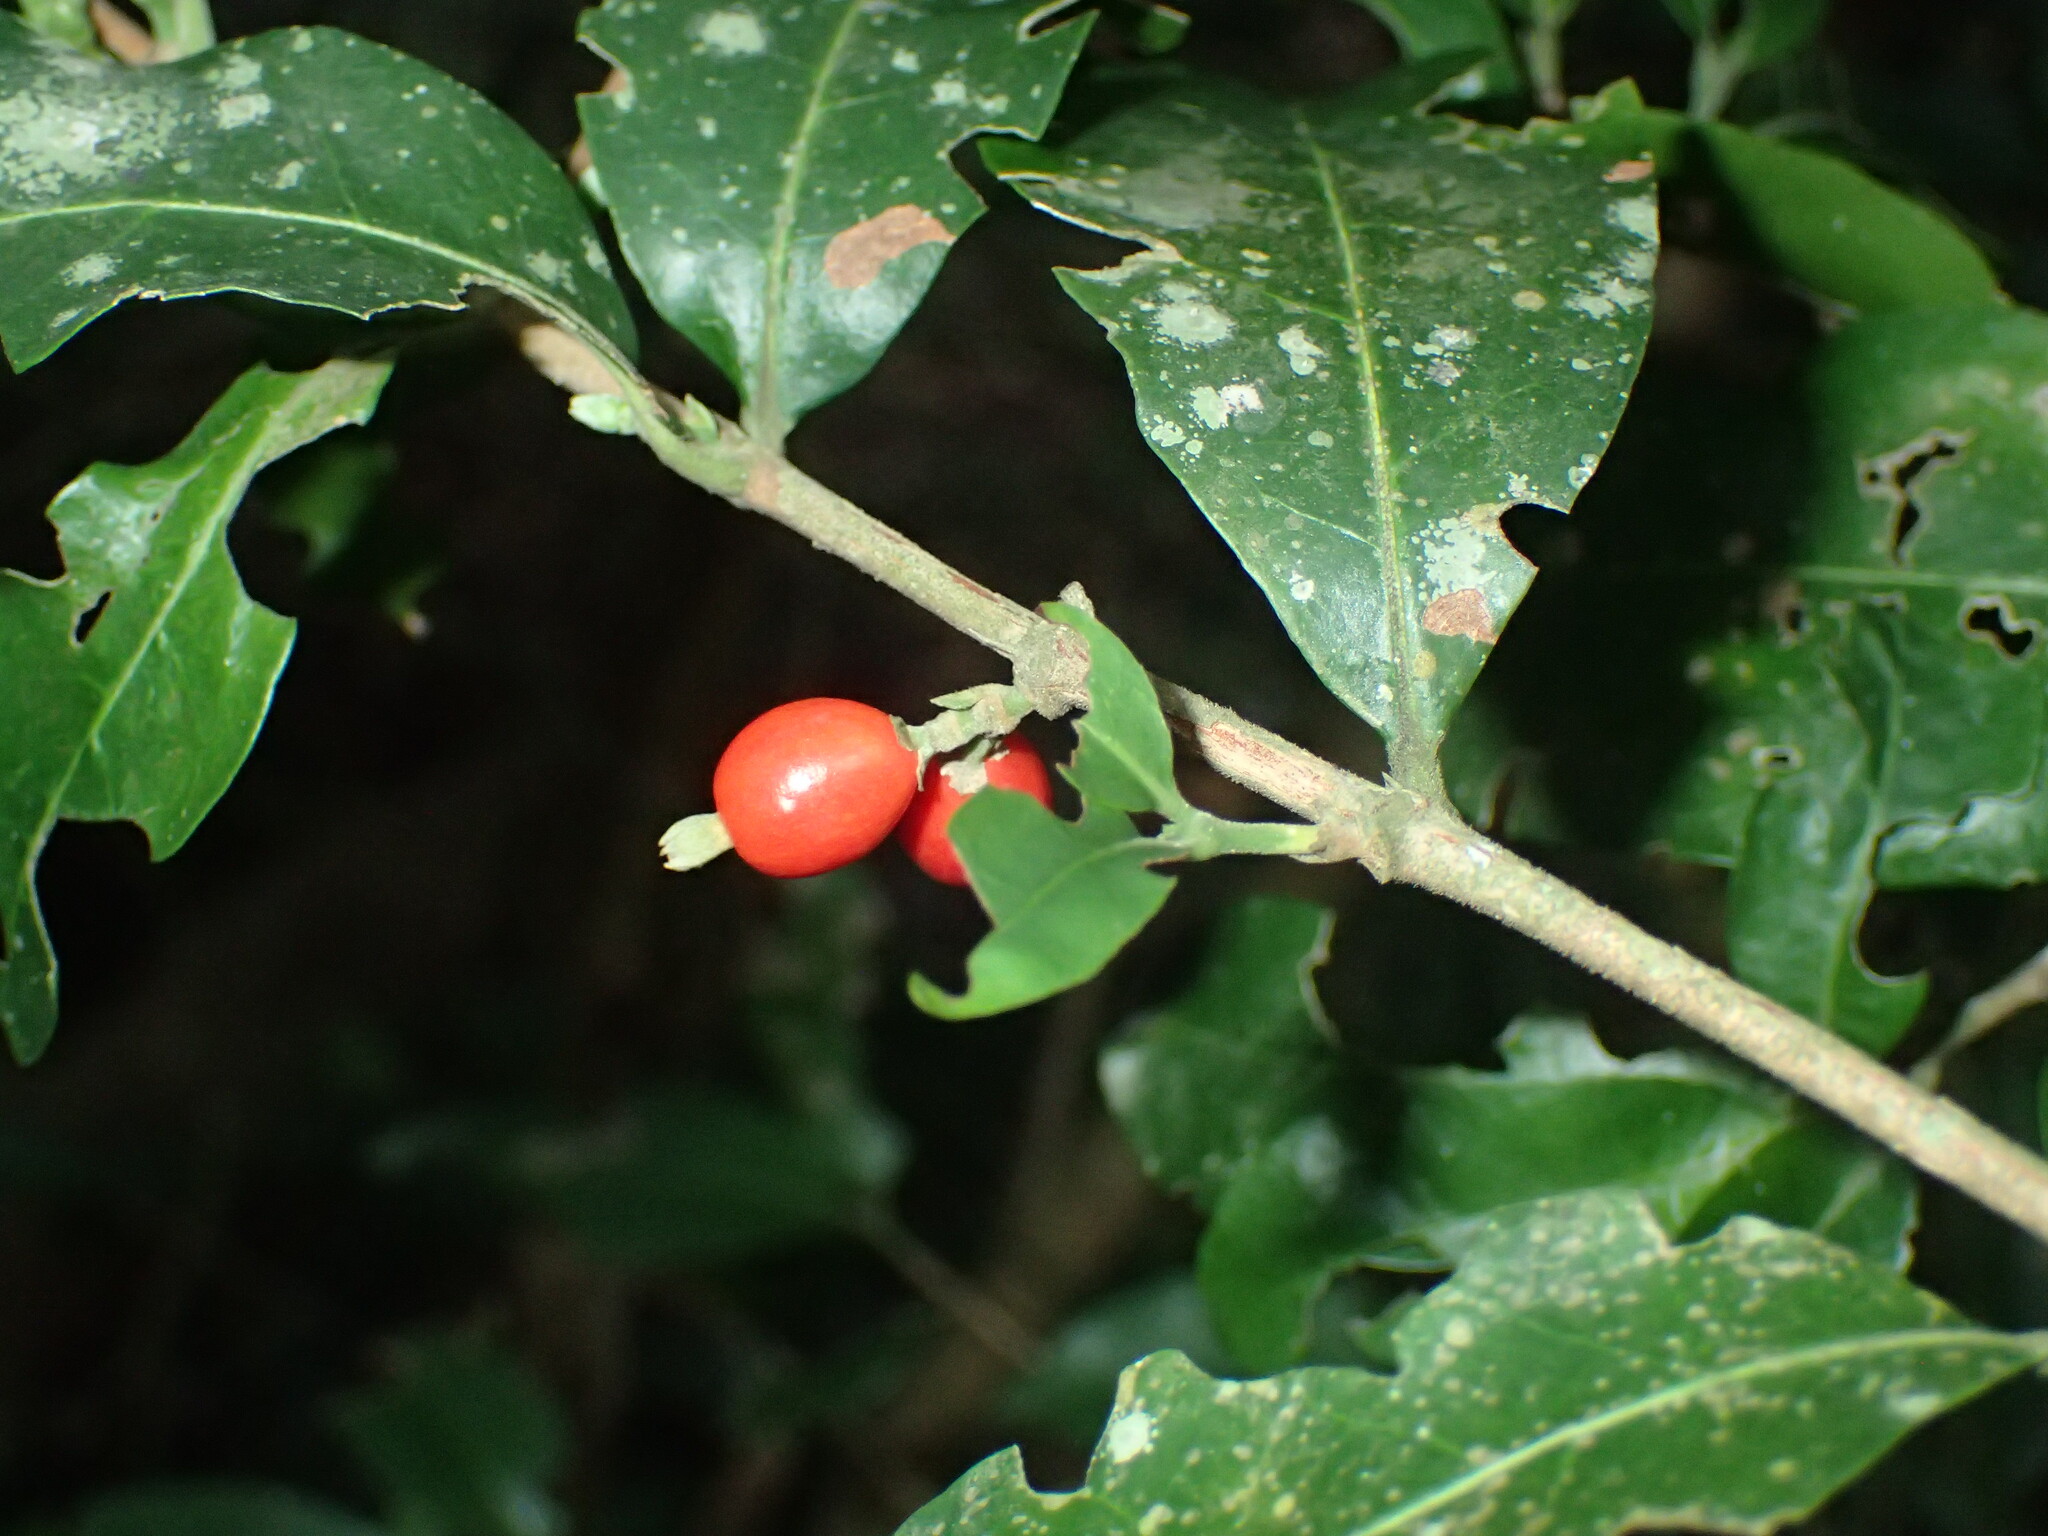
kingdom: Plantae
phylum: Tracheophyta
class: Magnoliopsida
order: Gentianales
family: Rubiaceae
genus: Empogona
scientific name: Empogona coriacea
